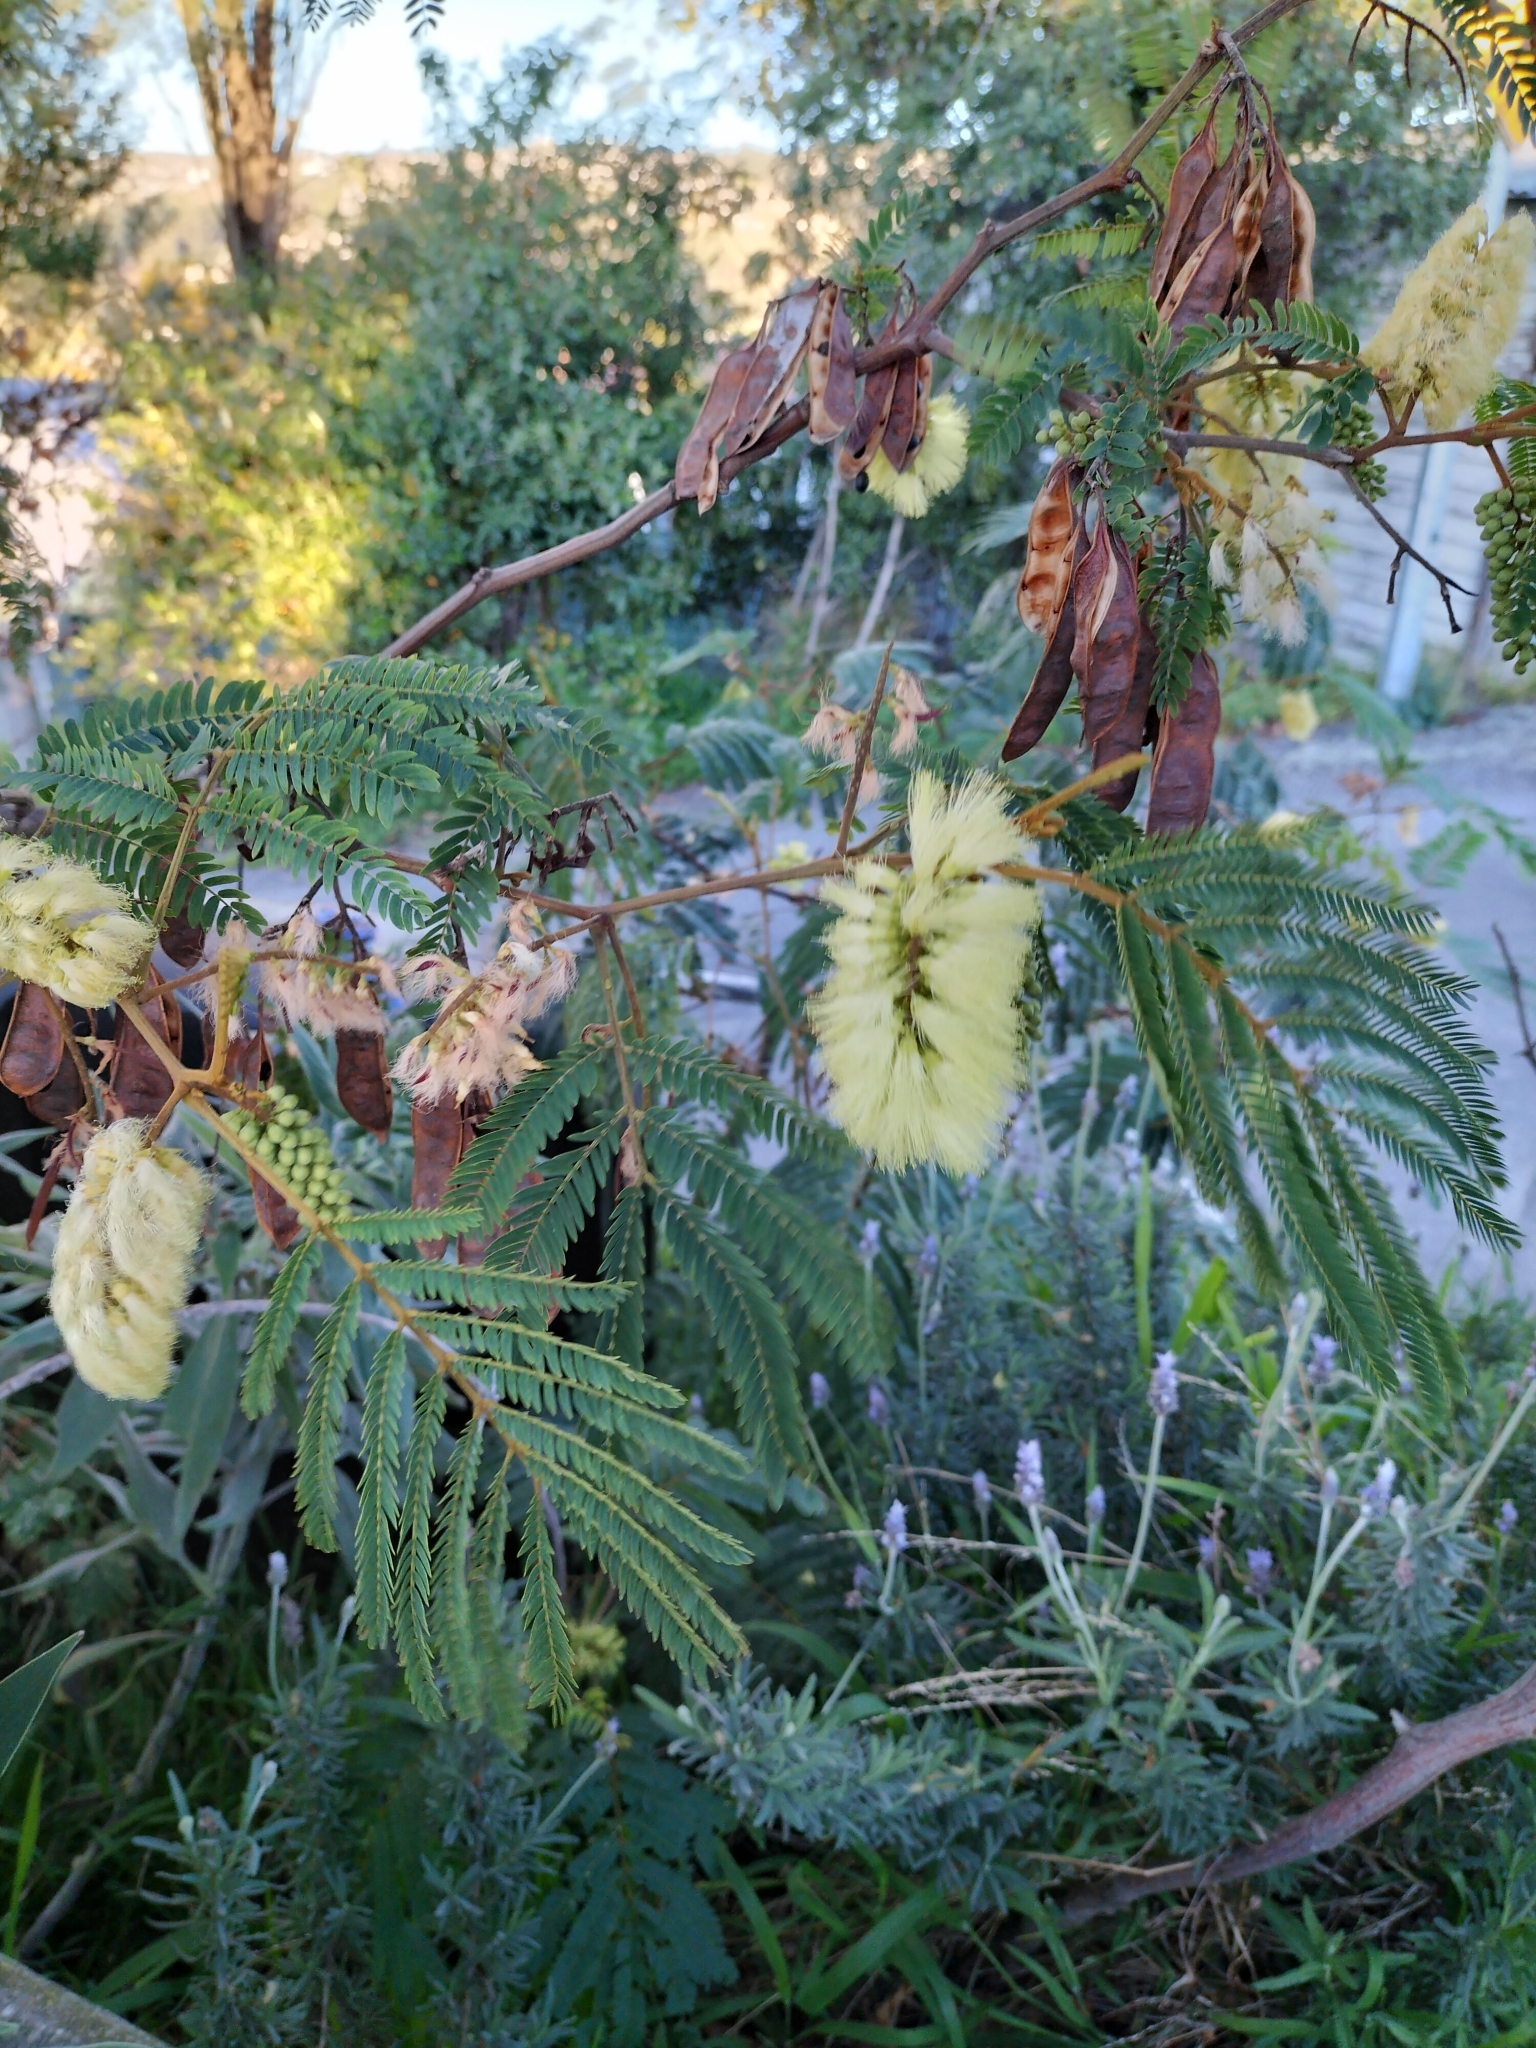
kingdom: Plantae
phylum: Tracheophyta
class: Magnoliopsida
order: Fabales
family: Fabaceae
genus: Paraserianthes
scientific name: Paraserianthes lophantha
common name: Plume albizia
